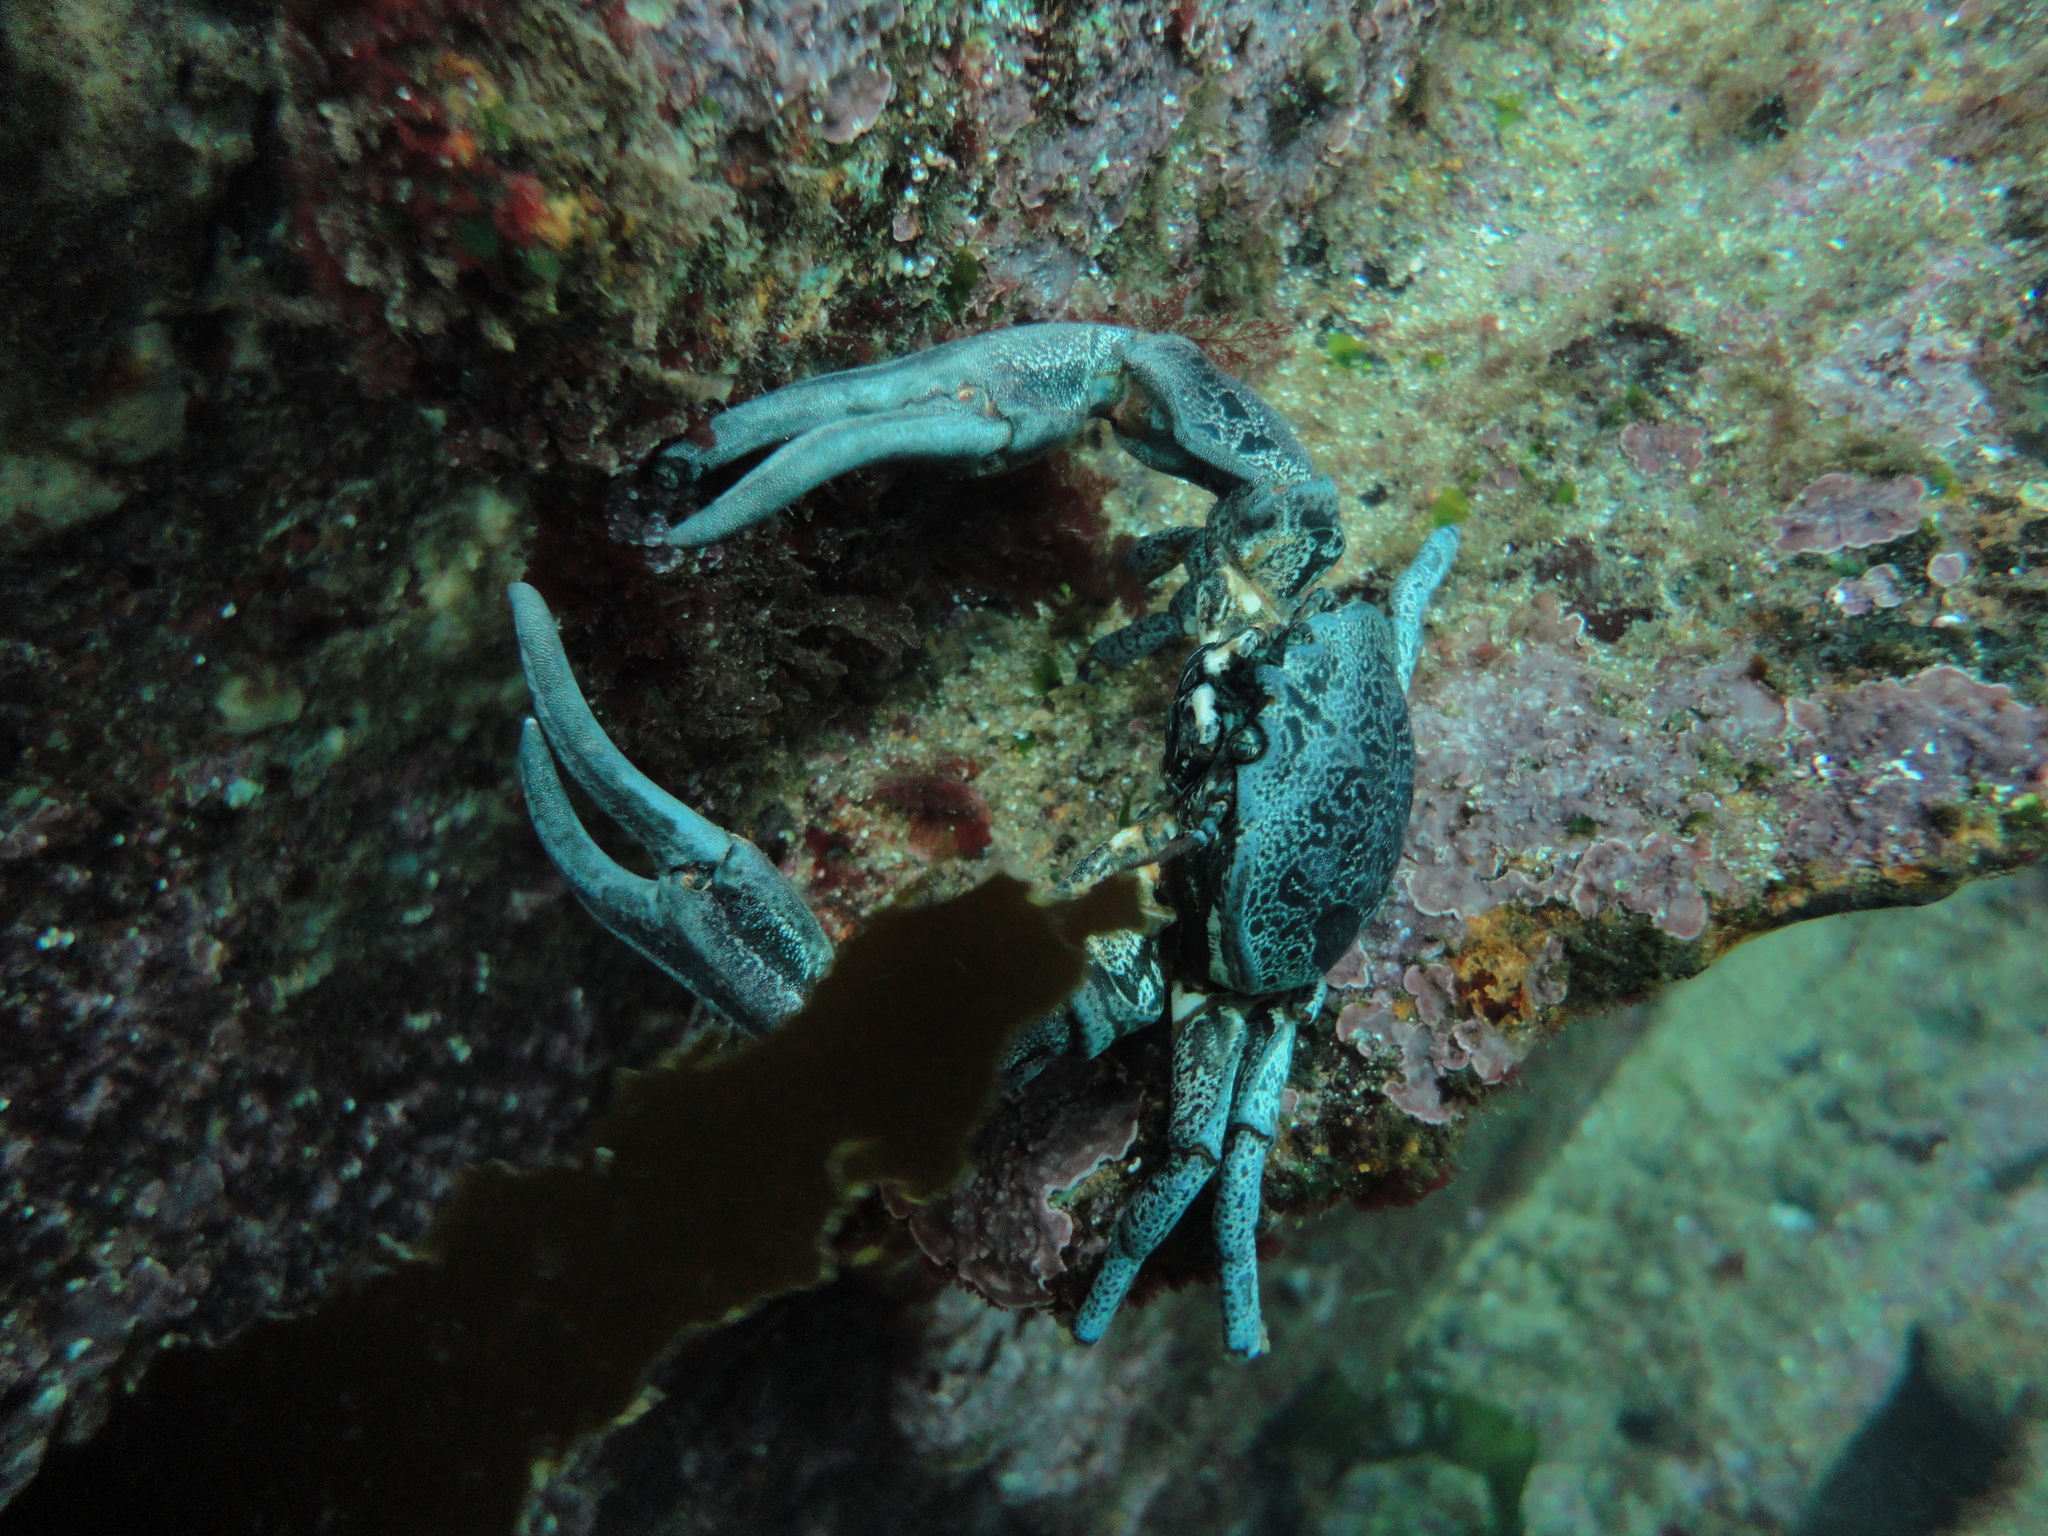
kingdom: Animalia
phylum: Arthropoda
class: Malacostraca
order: Decapoda
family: Porcellanidae
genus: Petrolisthes
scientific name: Petrolisthes punctatus
